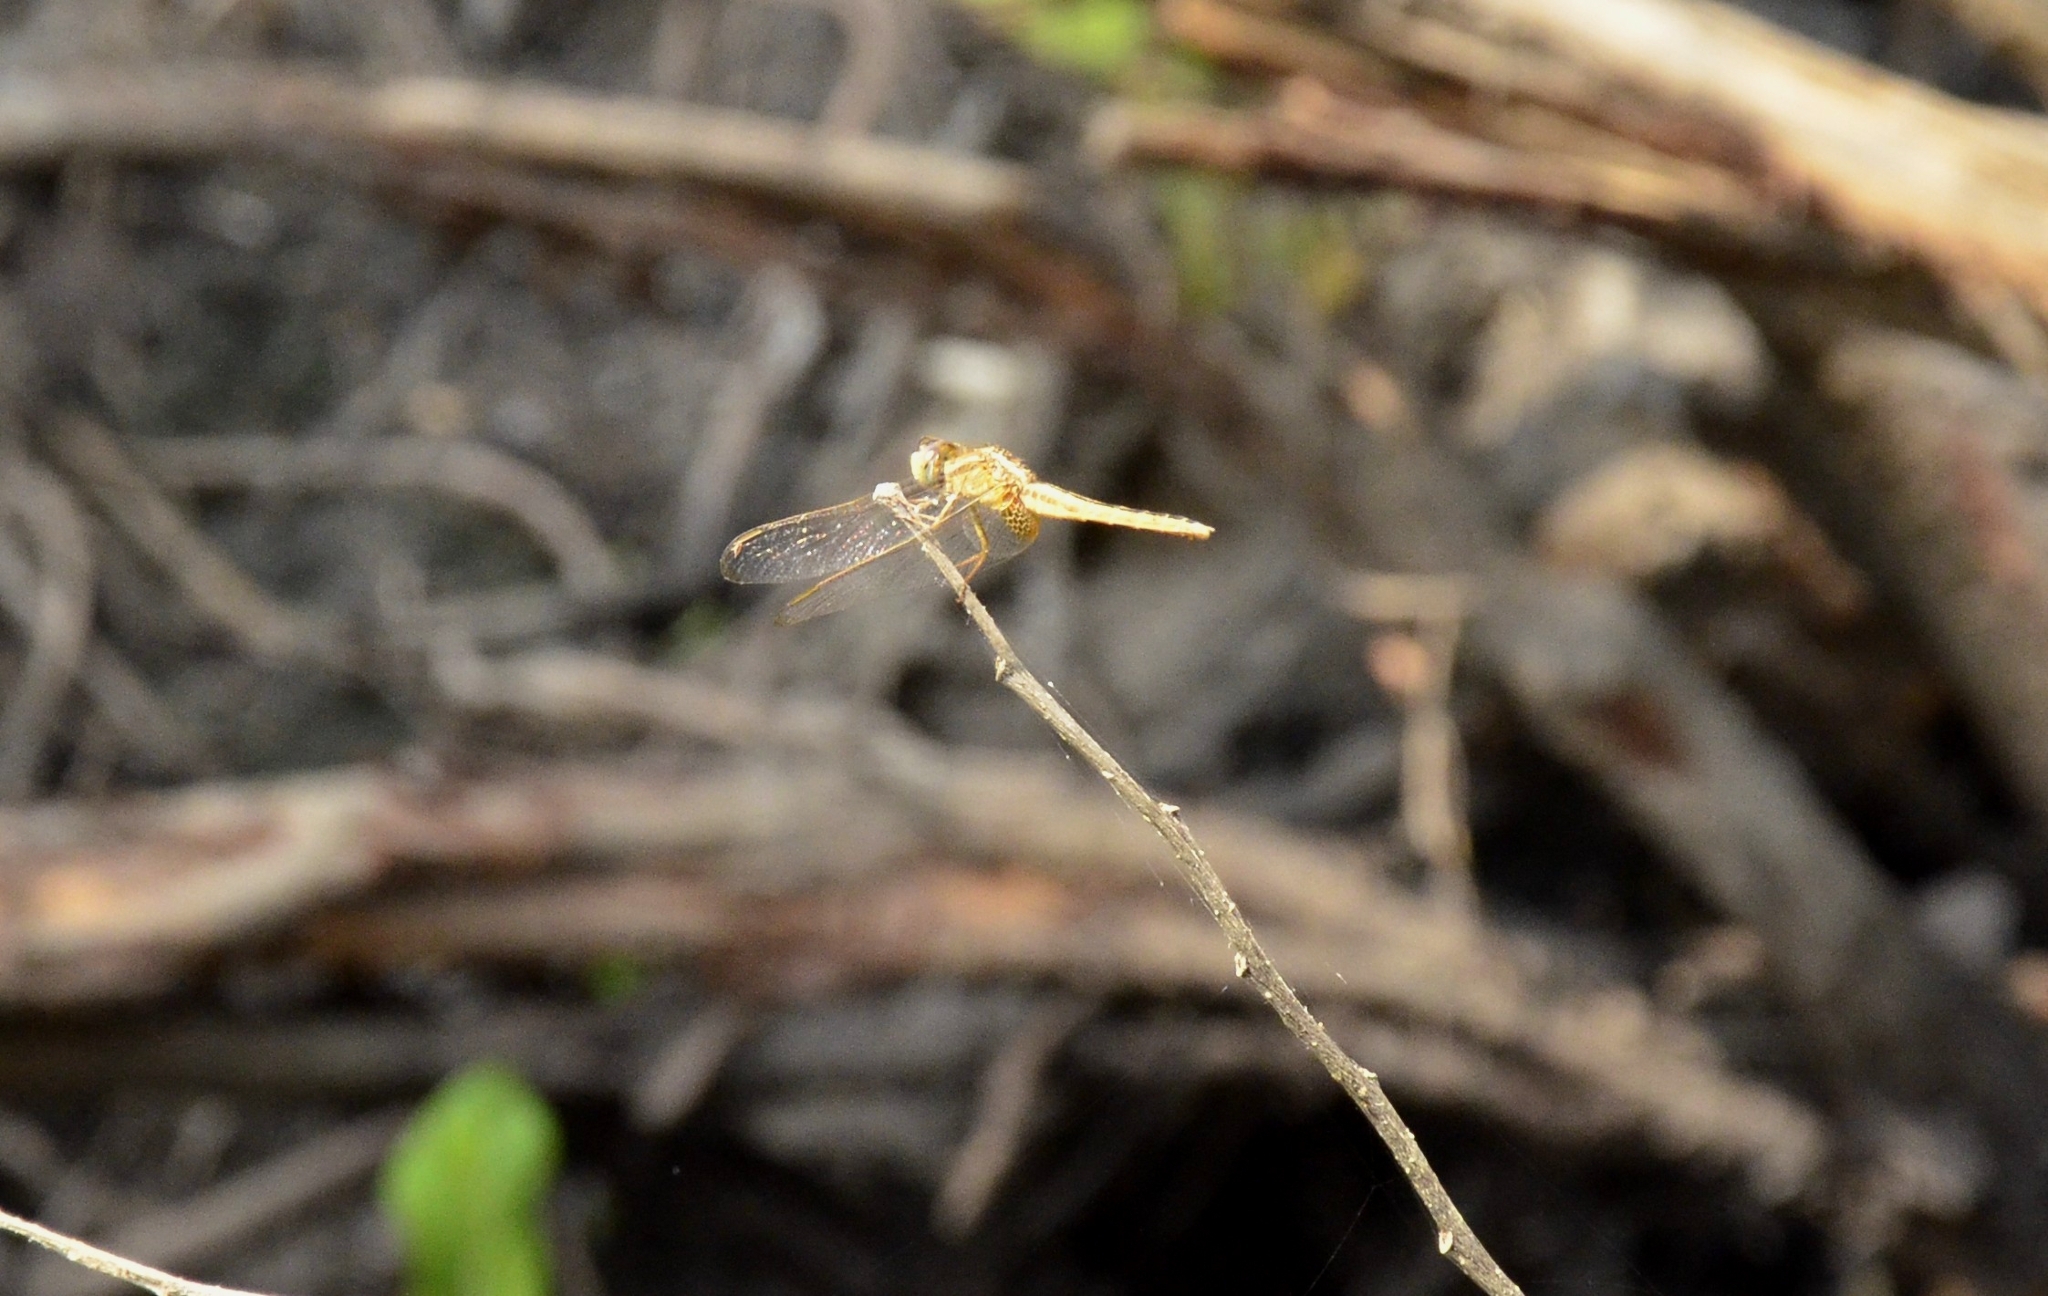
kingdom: Animalia
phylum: Arthropoda
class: Insecta
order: Odonata
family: Libellulidae
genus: Crocothemis
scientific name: Crocothemis servilia
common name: Scarlet skimmer
